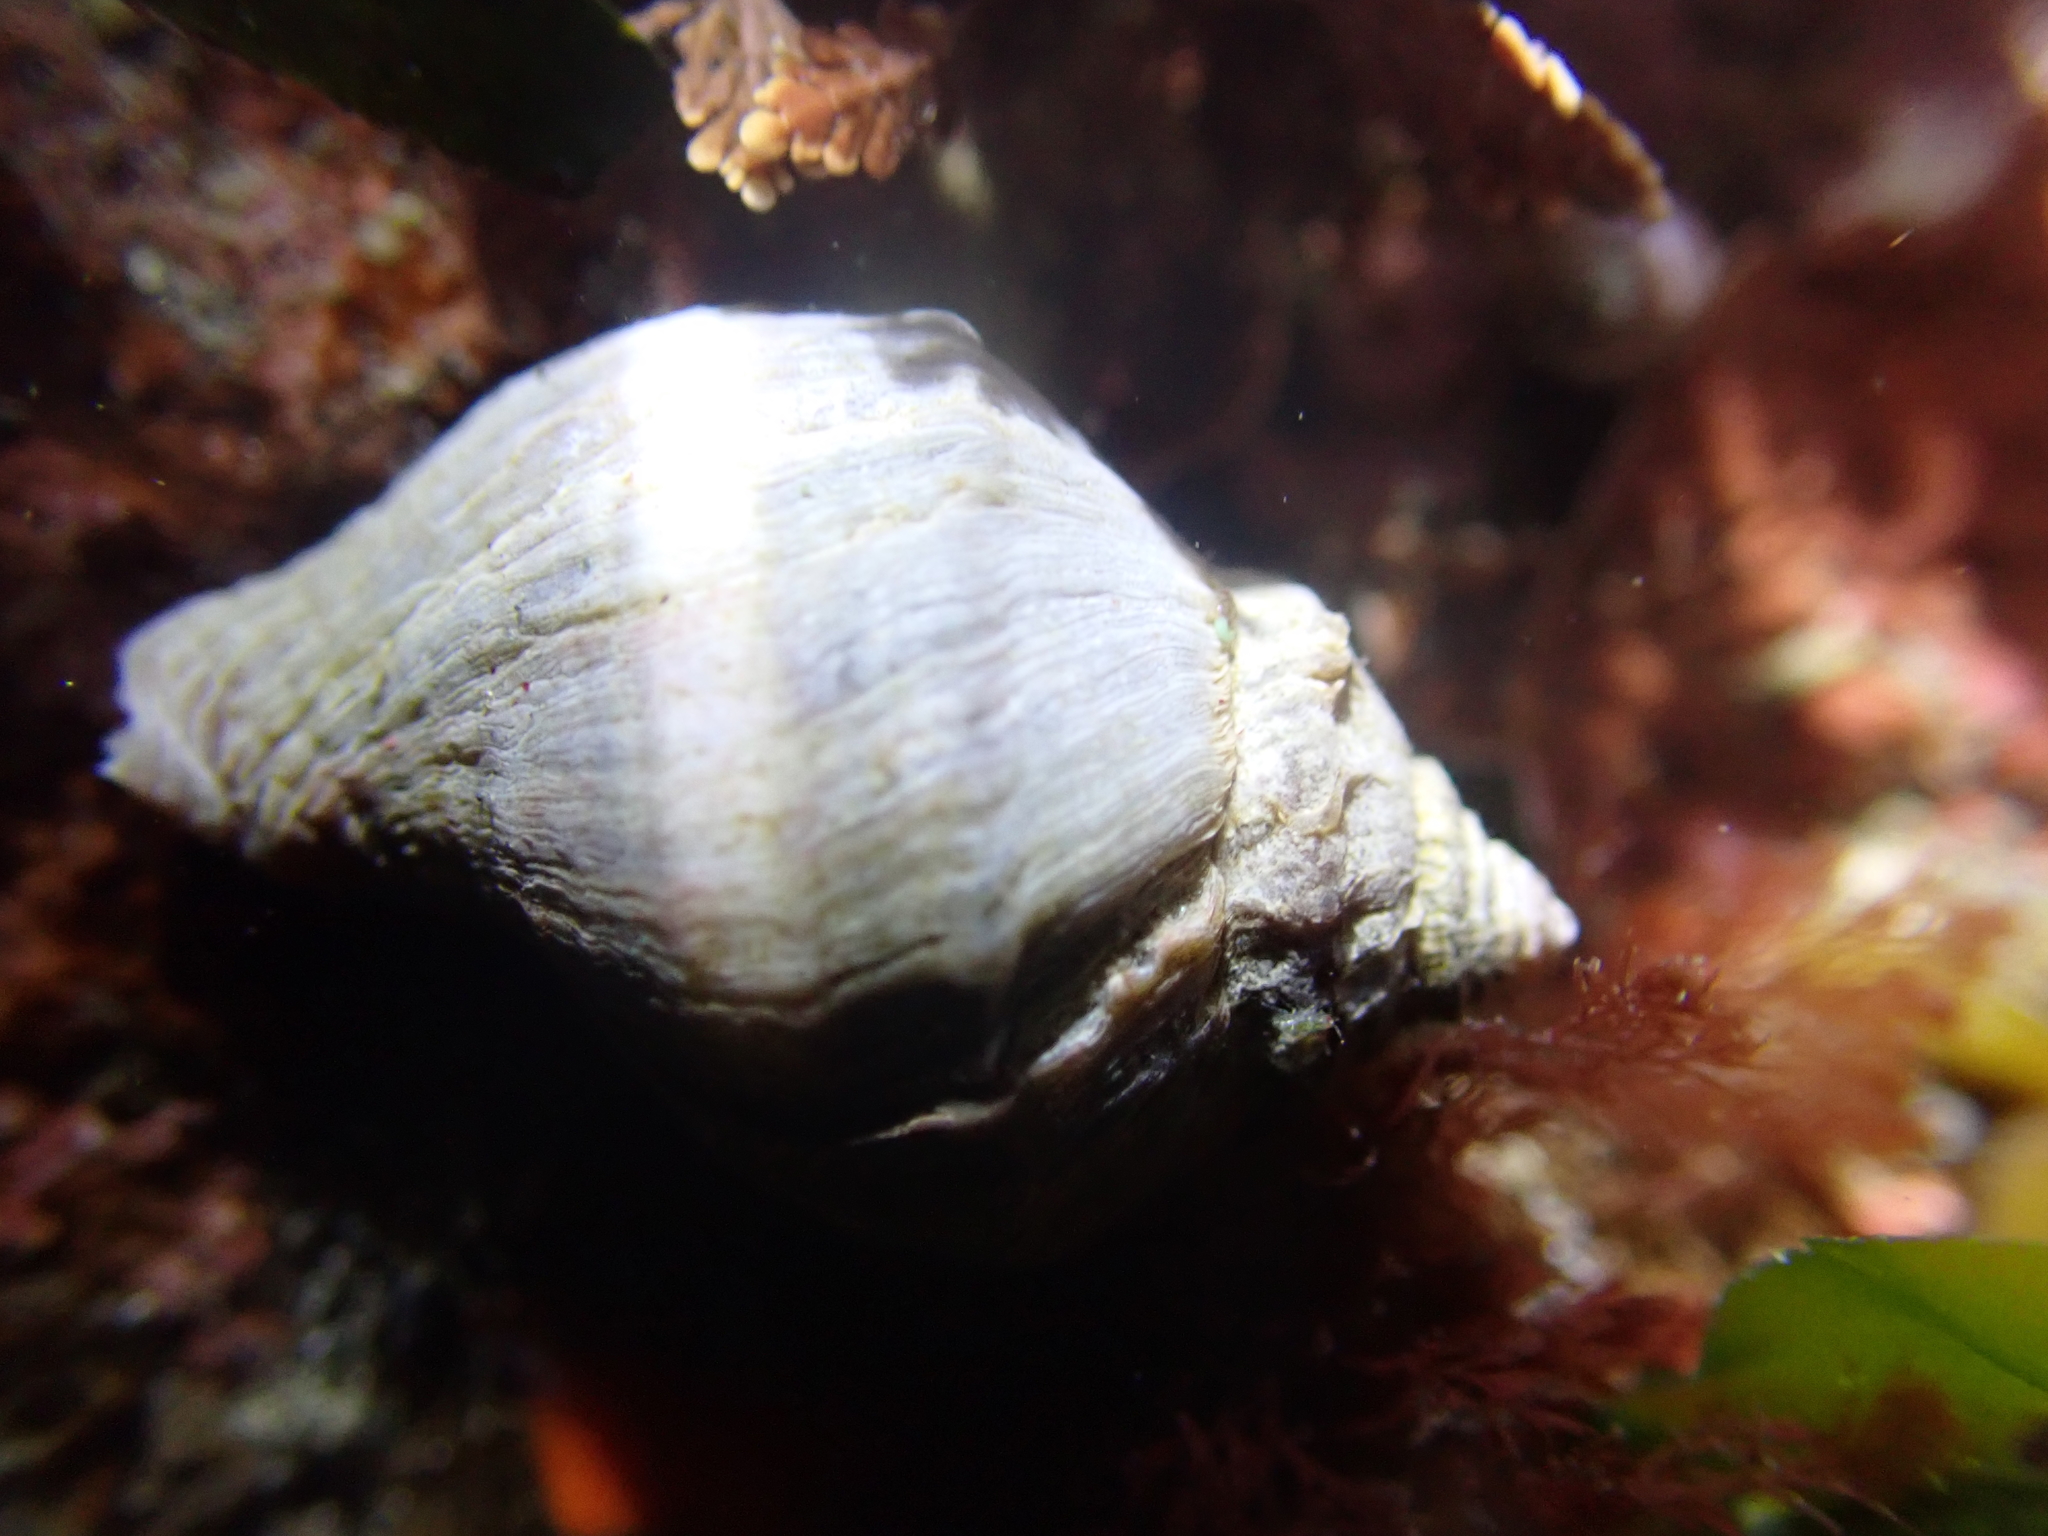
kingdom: Animalia
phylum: Mollusca
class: Gastropoda
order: Neogastropoda
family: Muricidae
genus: Nucella
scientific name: Nucella lamellosa
